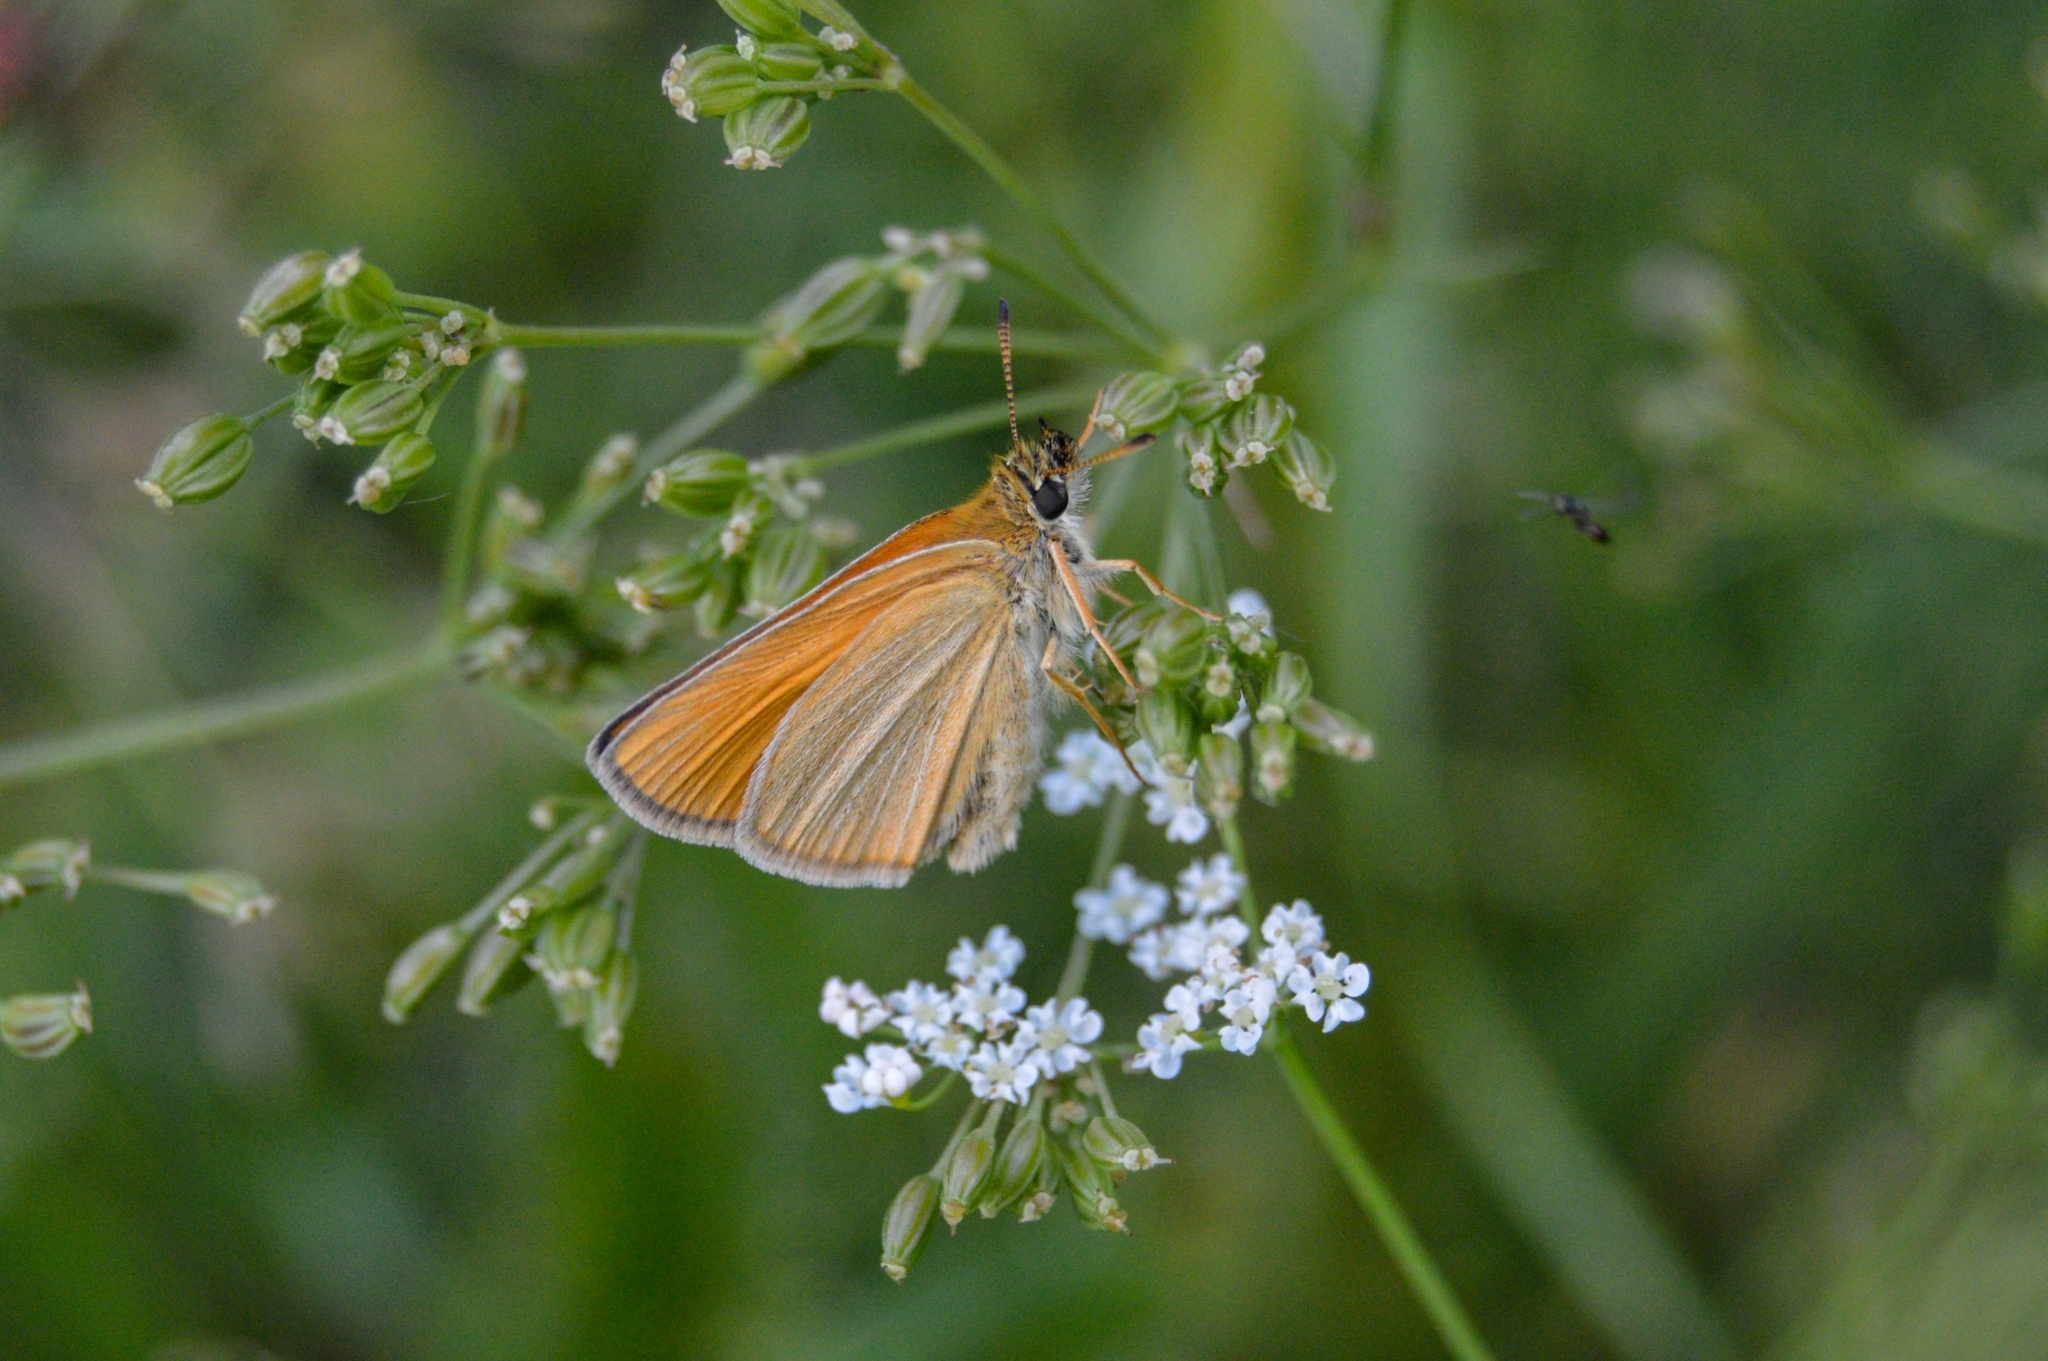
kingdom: Animalia
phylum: Arthropoda
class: Insecta
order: Lepidoptera
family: Hesperiidae
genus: Thymelicus
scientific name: Thymelicus lineola
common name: Essex skipper
